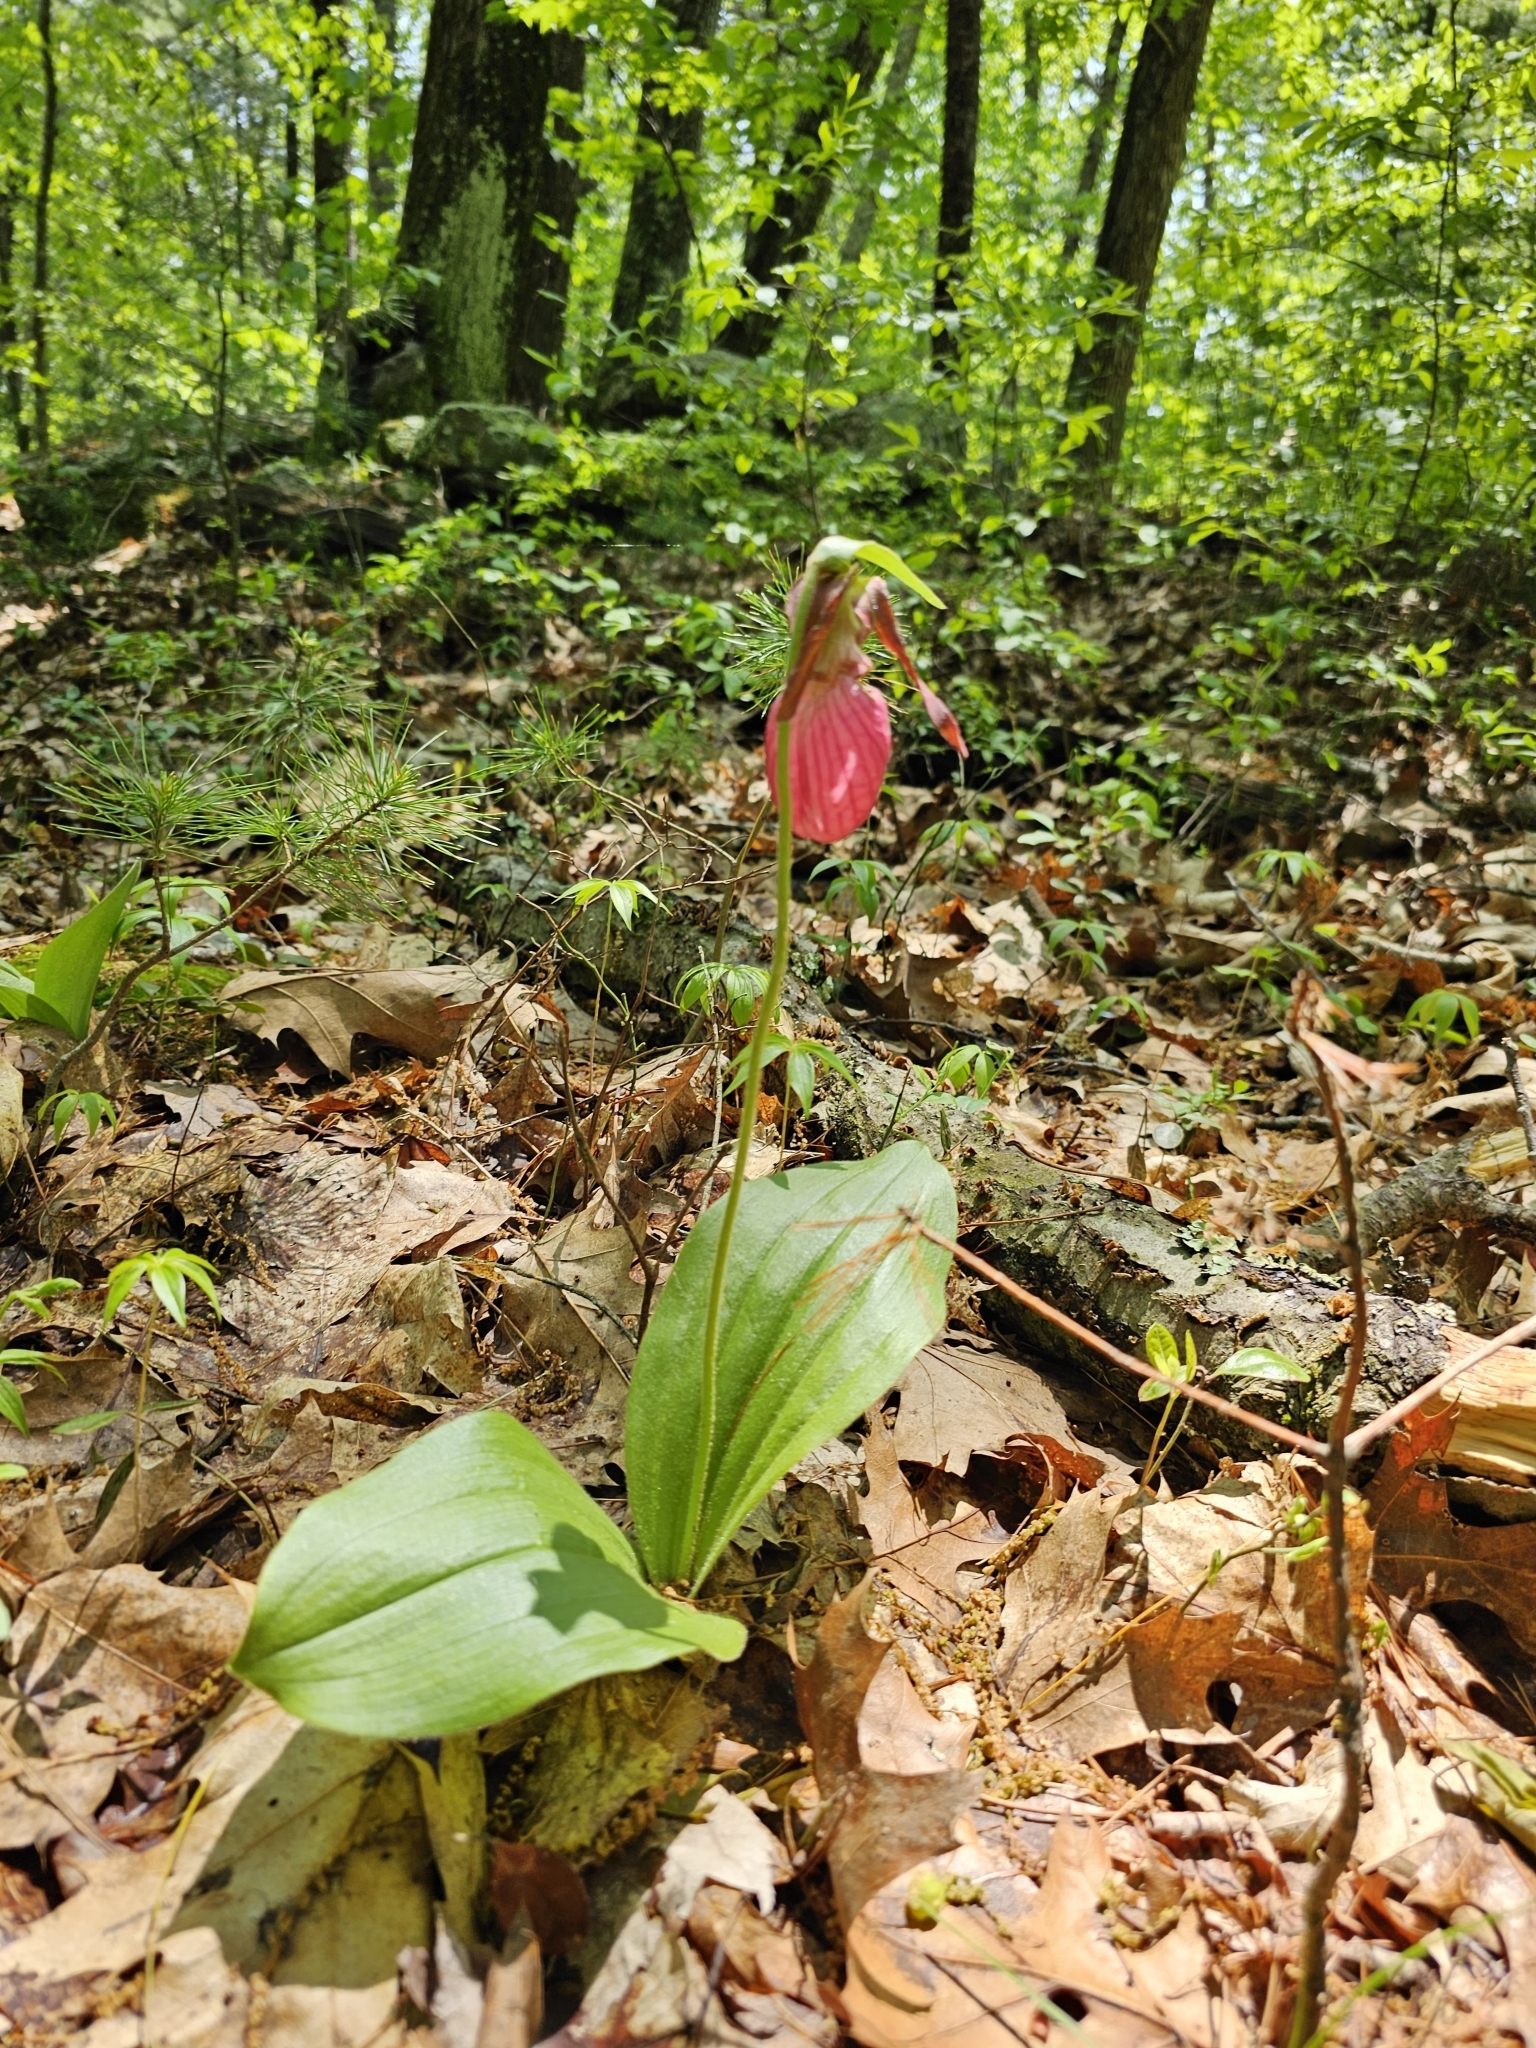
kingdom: Plantae
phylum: Tracheophyta
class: Liliopsida
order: Asparagales
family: Orchidaceae
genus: Cypripedium
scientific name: Cypripedium acaule
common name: Pink lady's-slipper
